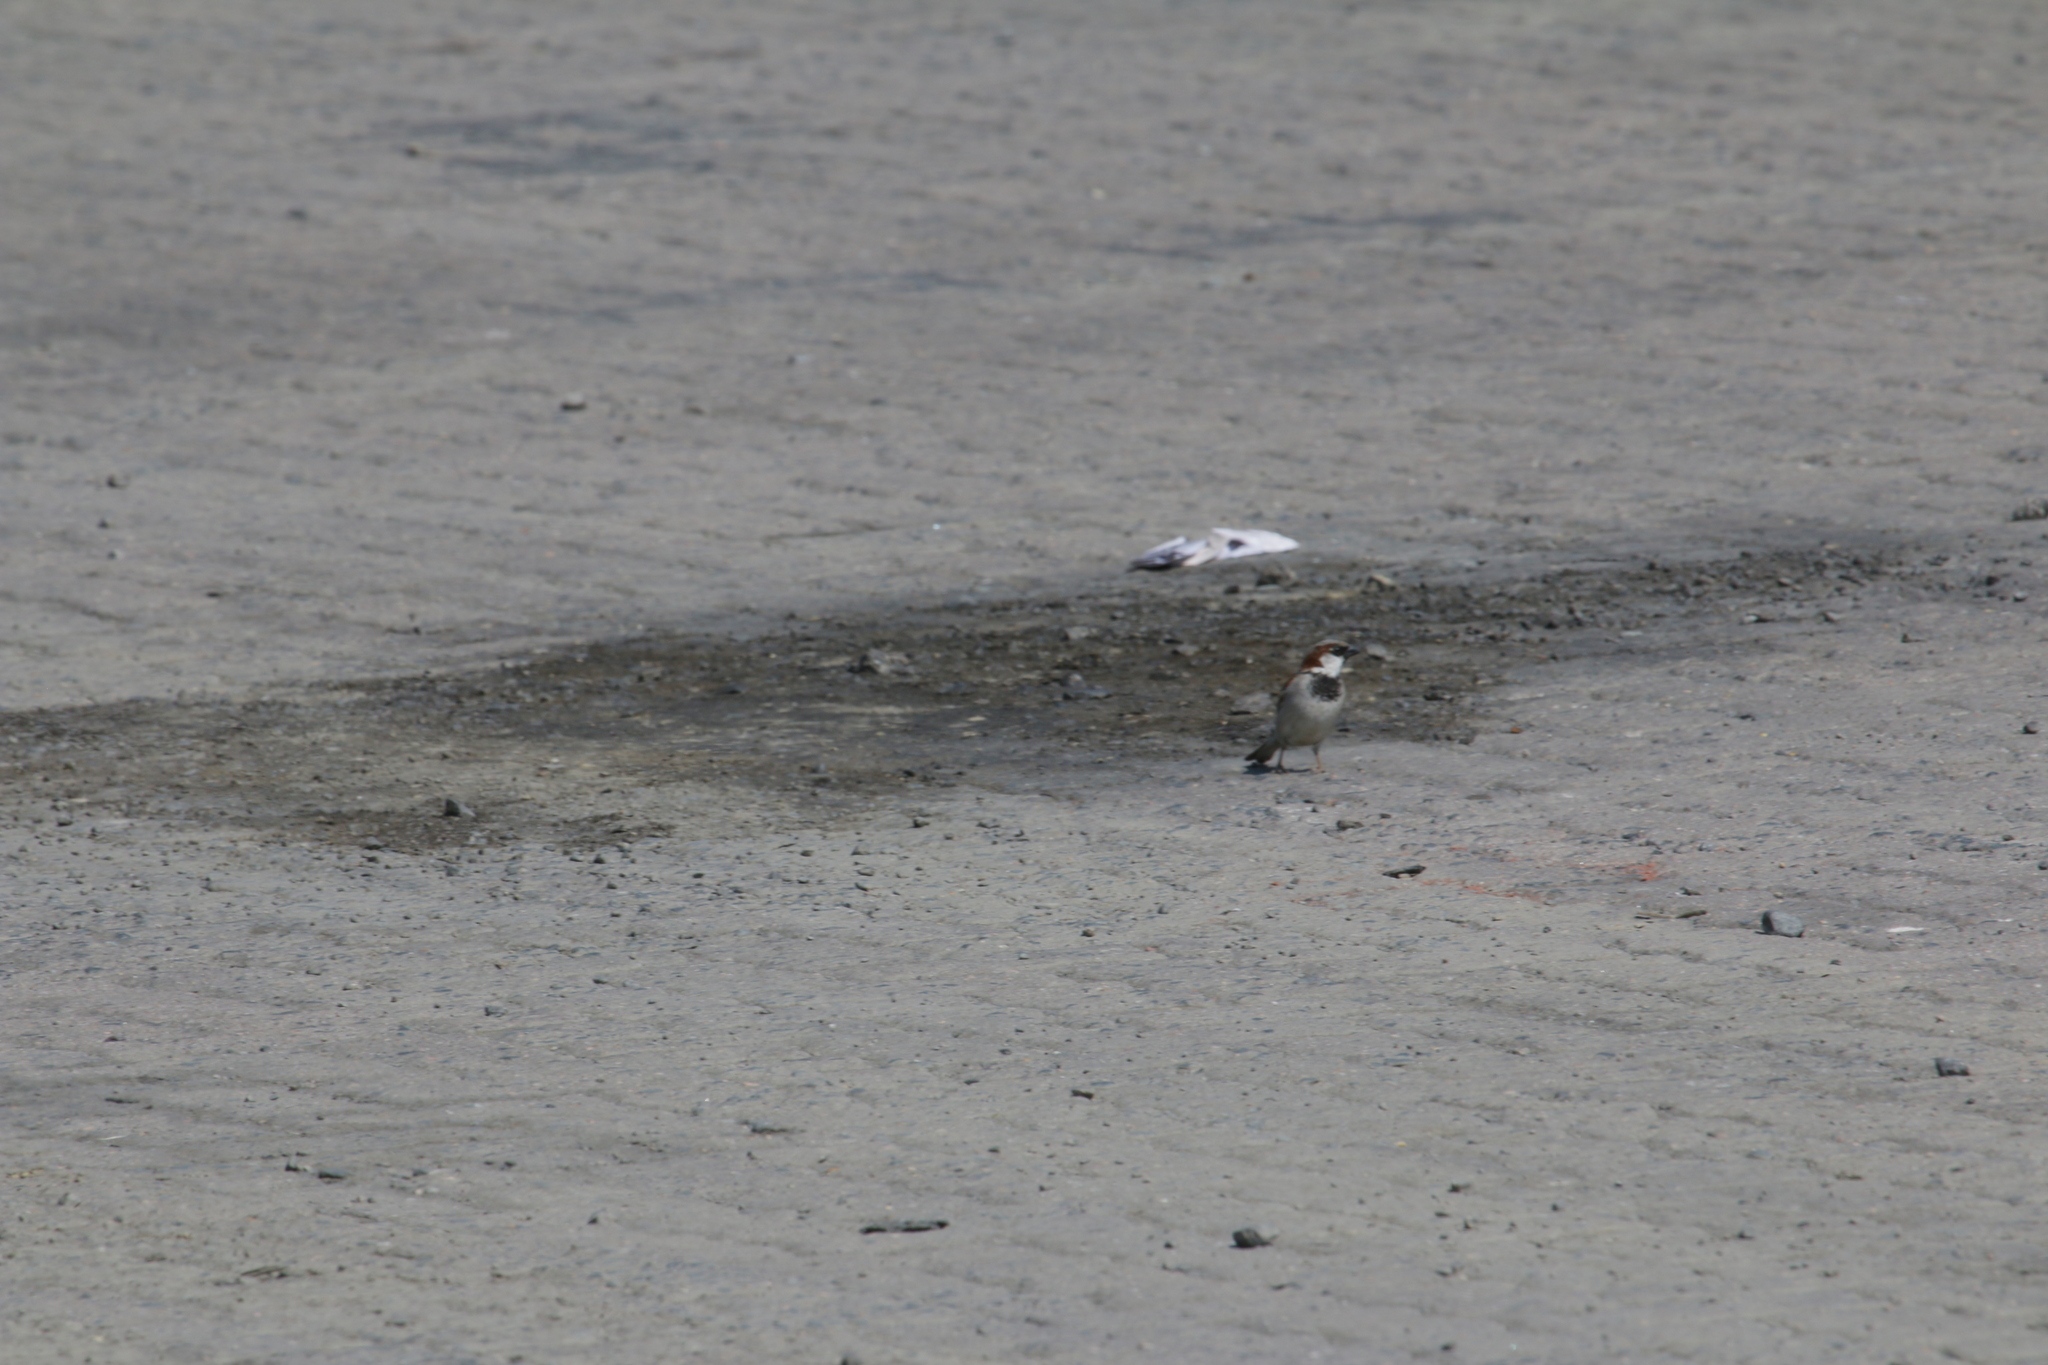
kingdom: Animalia
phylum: Chordata
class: Aves
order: Passeriformes
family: Passeridae
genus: Passer
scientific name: Passer domesticus
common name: House sparrow
